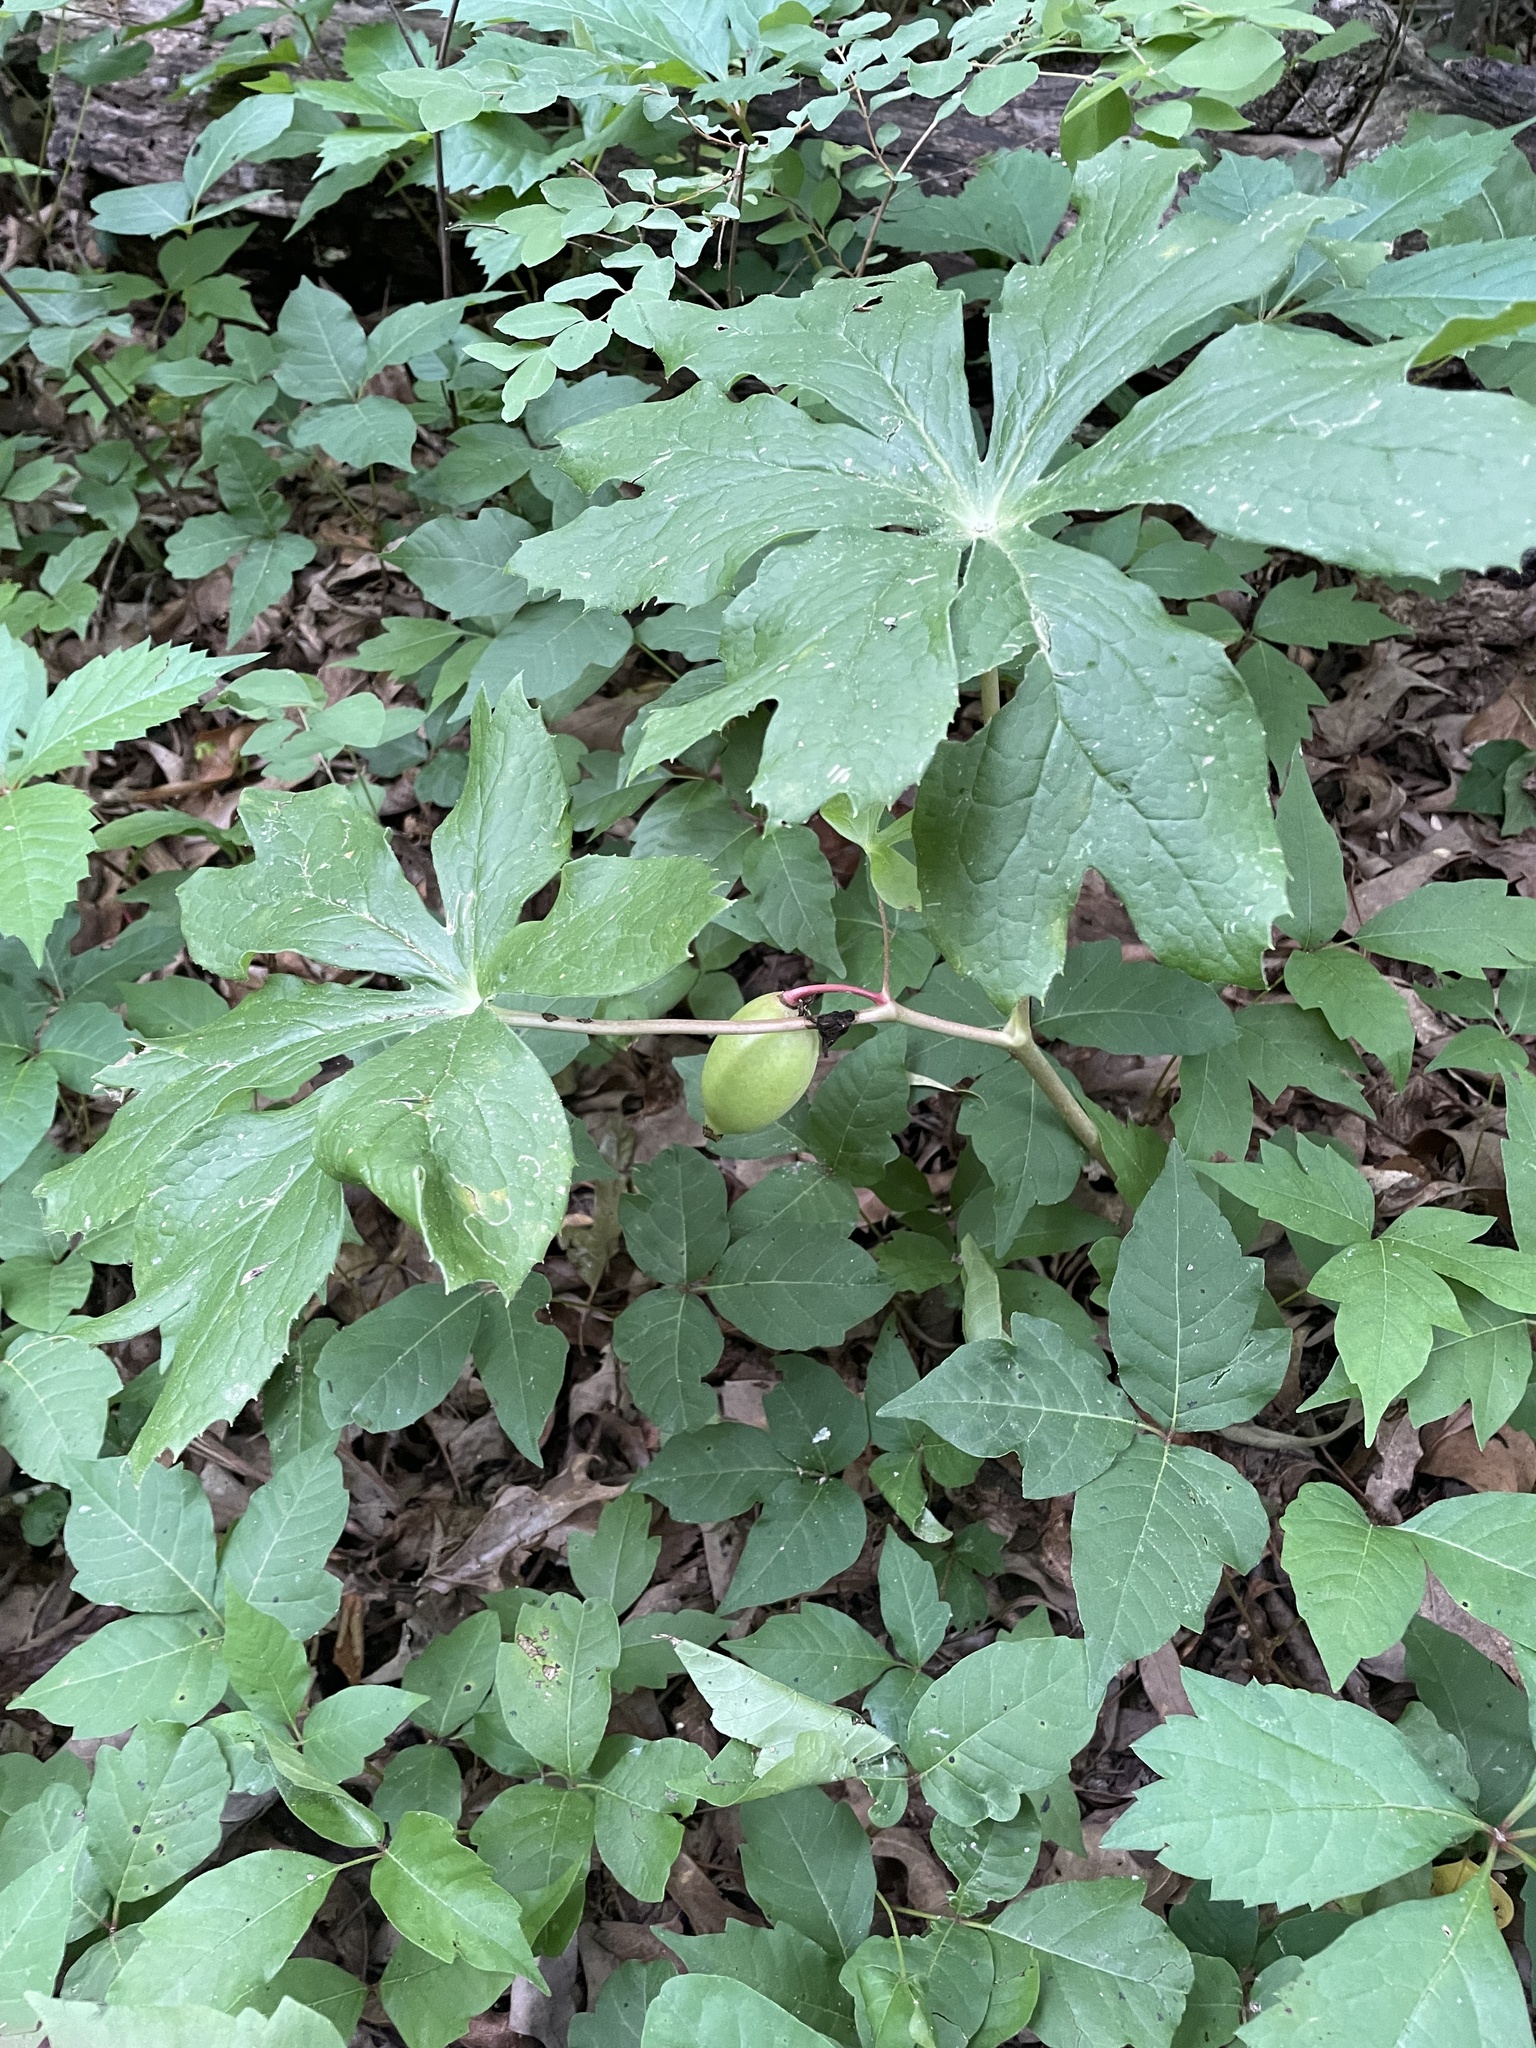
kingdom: Plantae
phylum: Tracheophyta
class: Magnoliopsida
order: Ranunculales
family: Berberidaceae
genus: Podophyllum
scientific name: Podophyllum peltatum
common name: Wild mandrake
